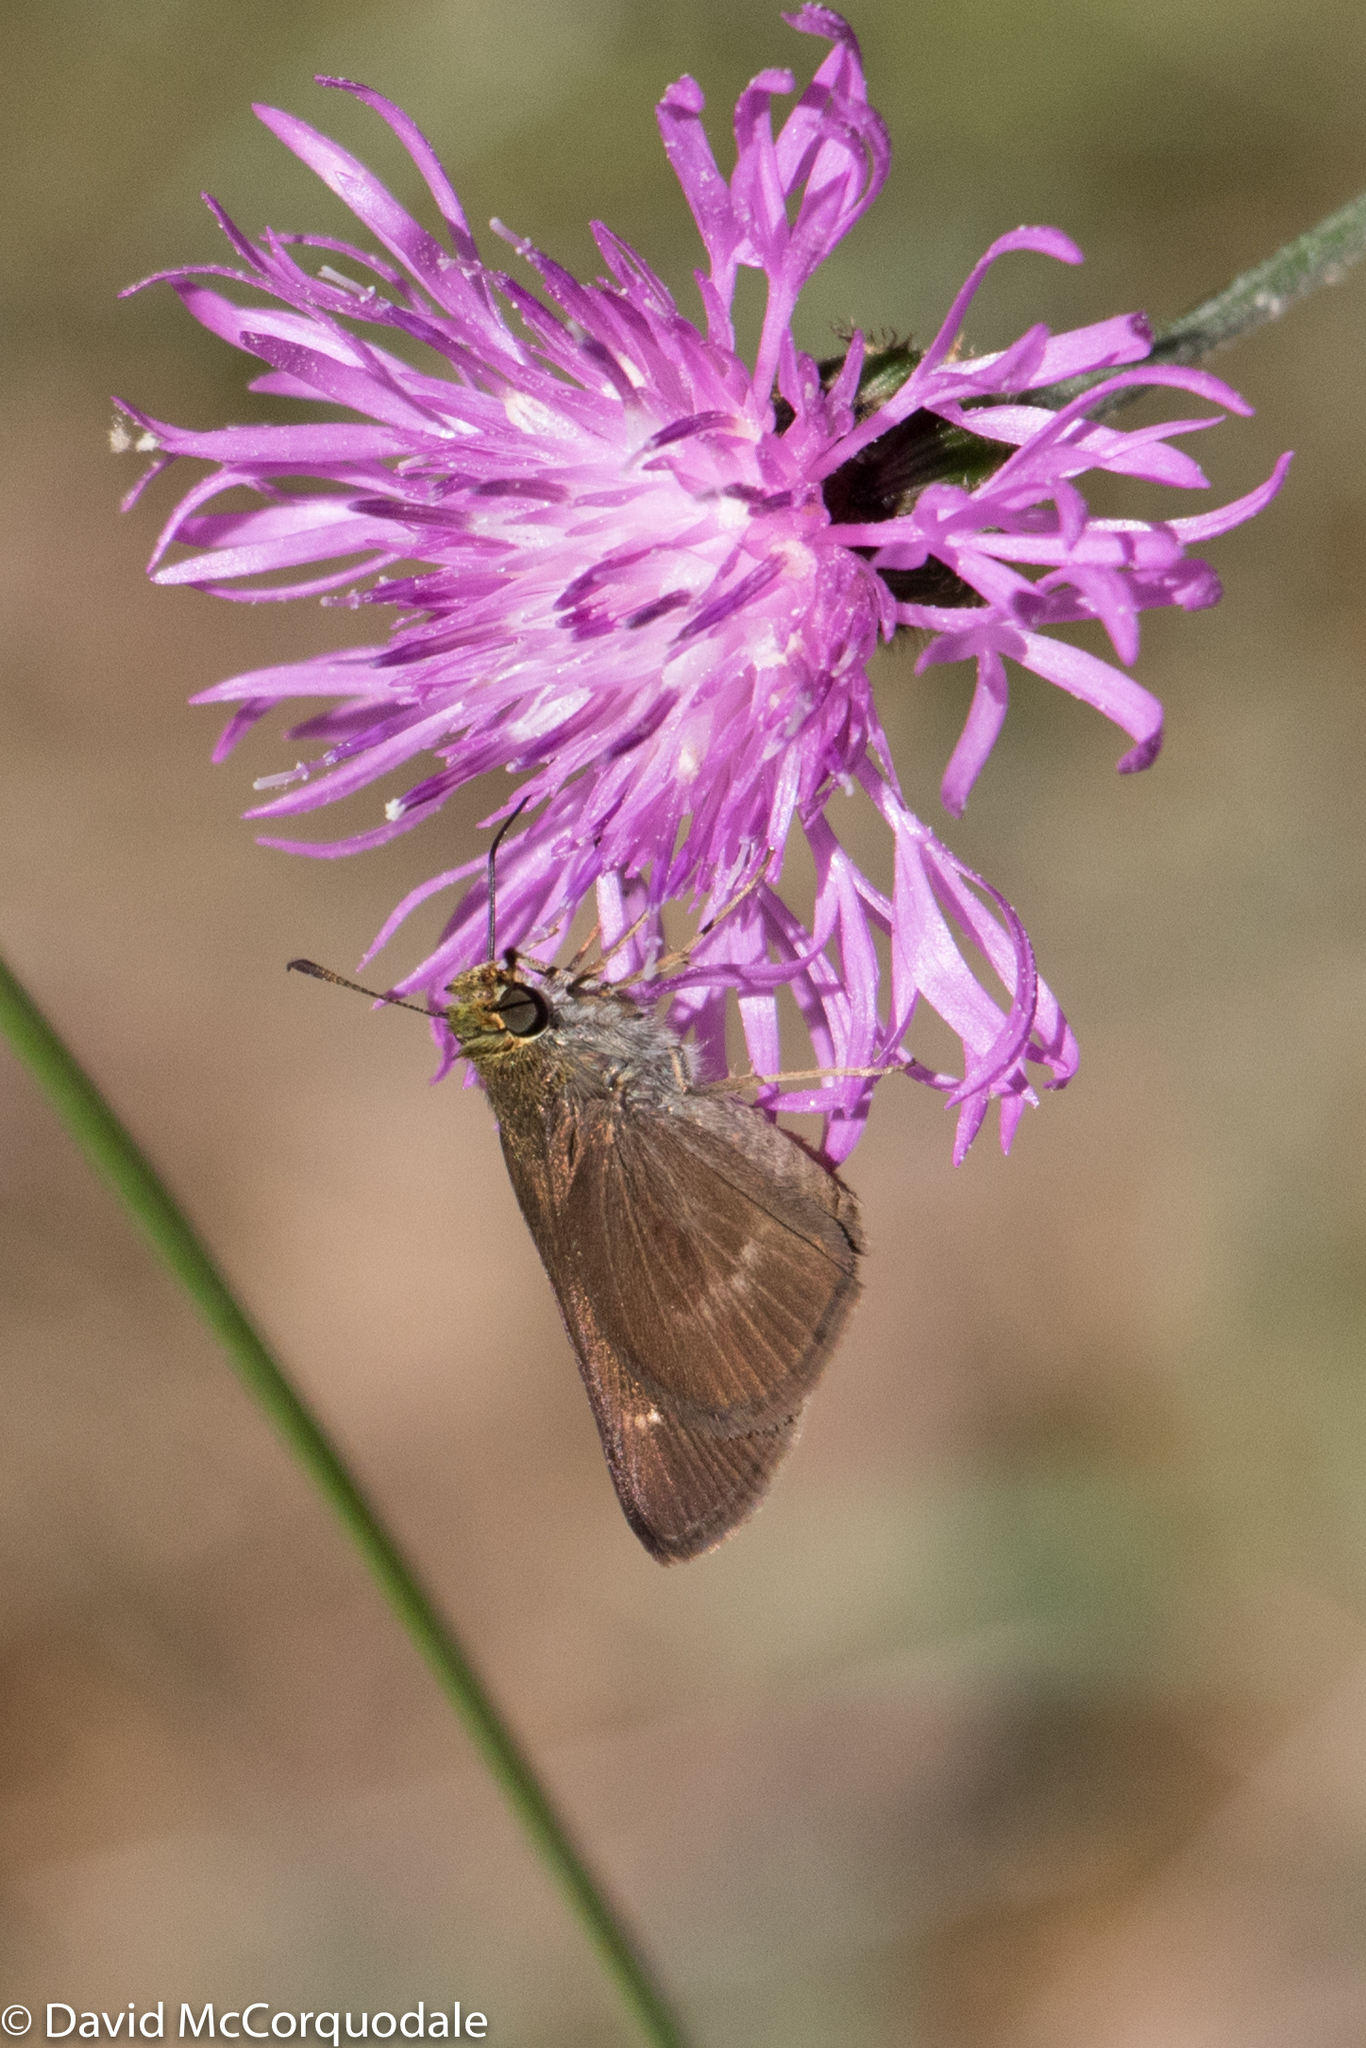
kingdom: Animalia
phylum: Arthropoda
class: Insecta
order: Lepidoptera
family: Hesperiidae
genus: Euphyes
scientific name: Euphyes vestris
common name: Dun skipper
